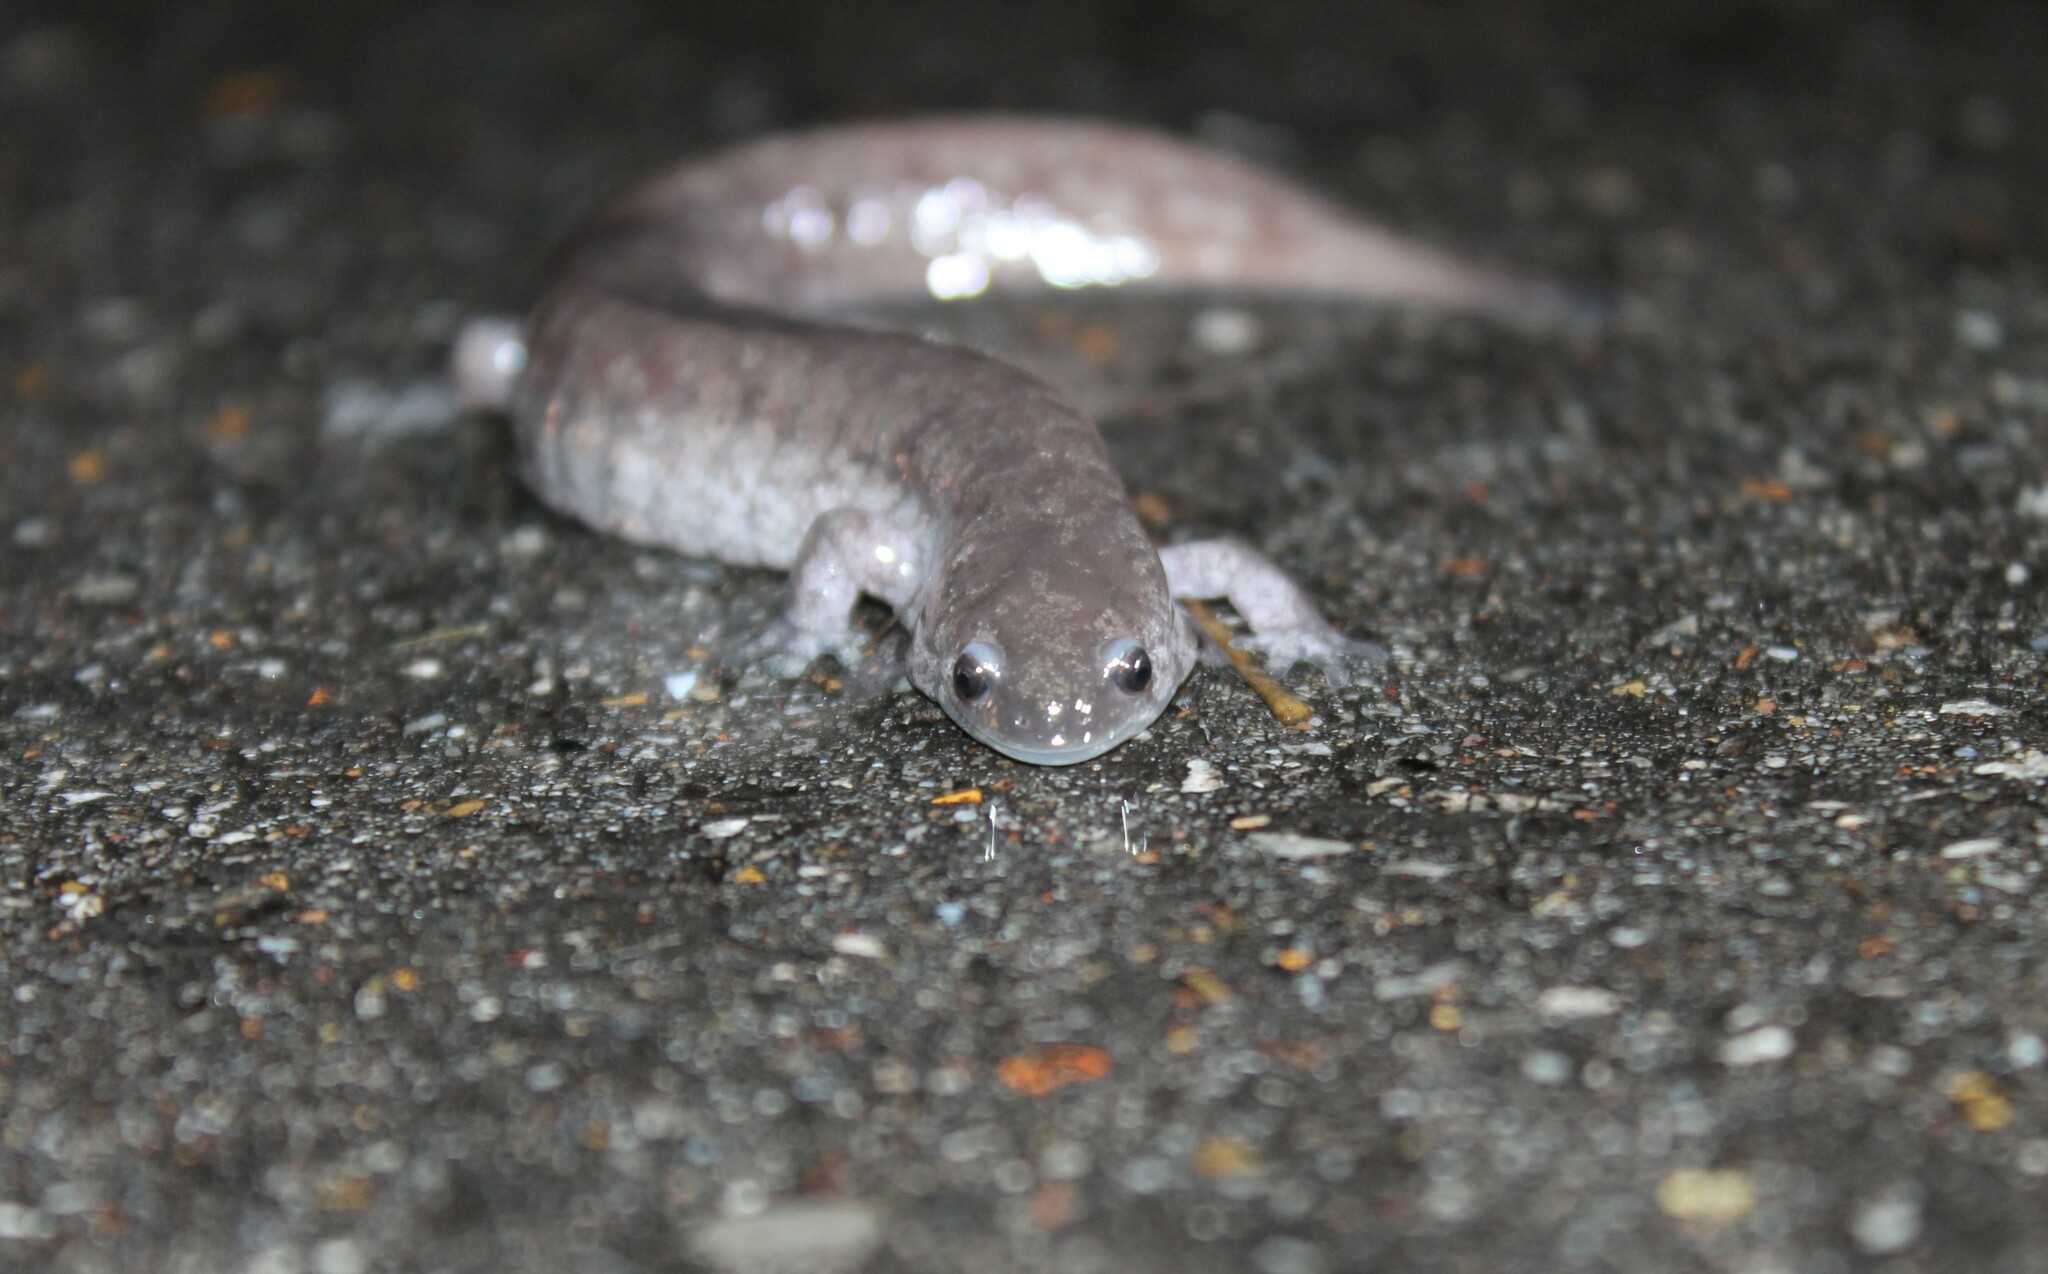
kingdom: Animalia
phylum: Chordata
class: Amphibia
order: Caudata
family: Ambystomatidae
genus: Ambystoma
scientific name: Ambystoma texanum
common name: Small-mouth salamander
